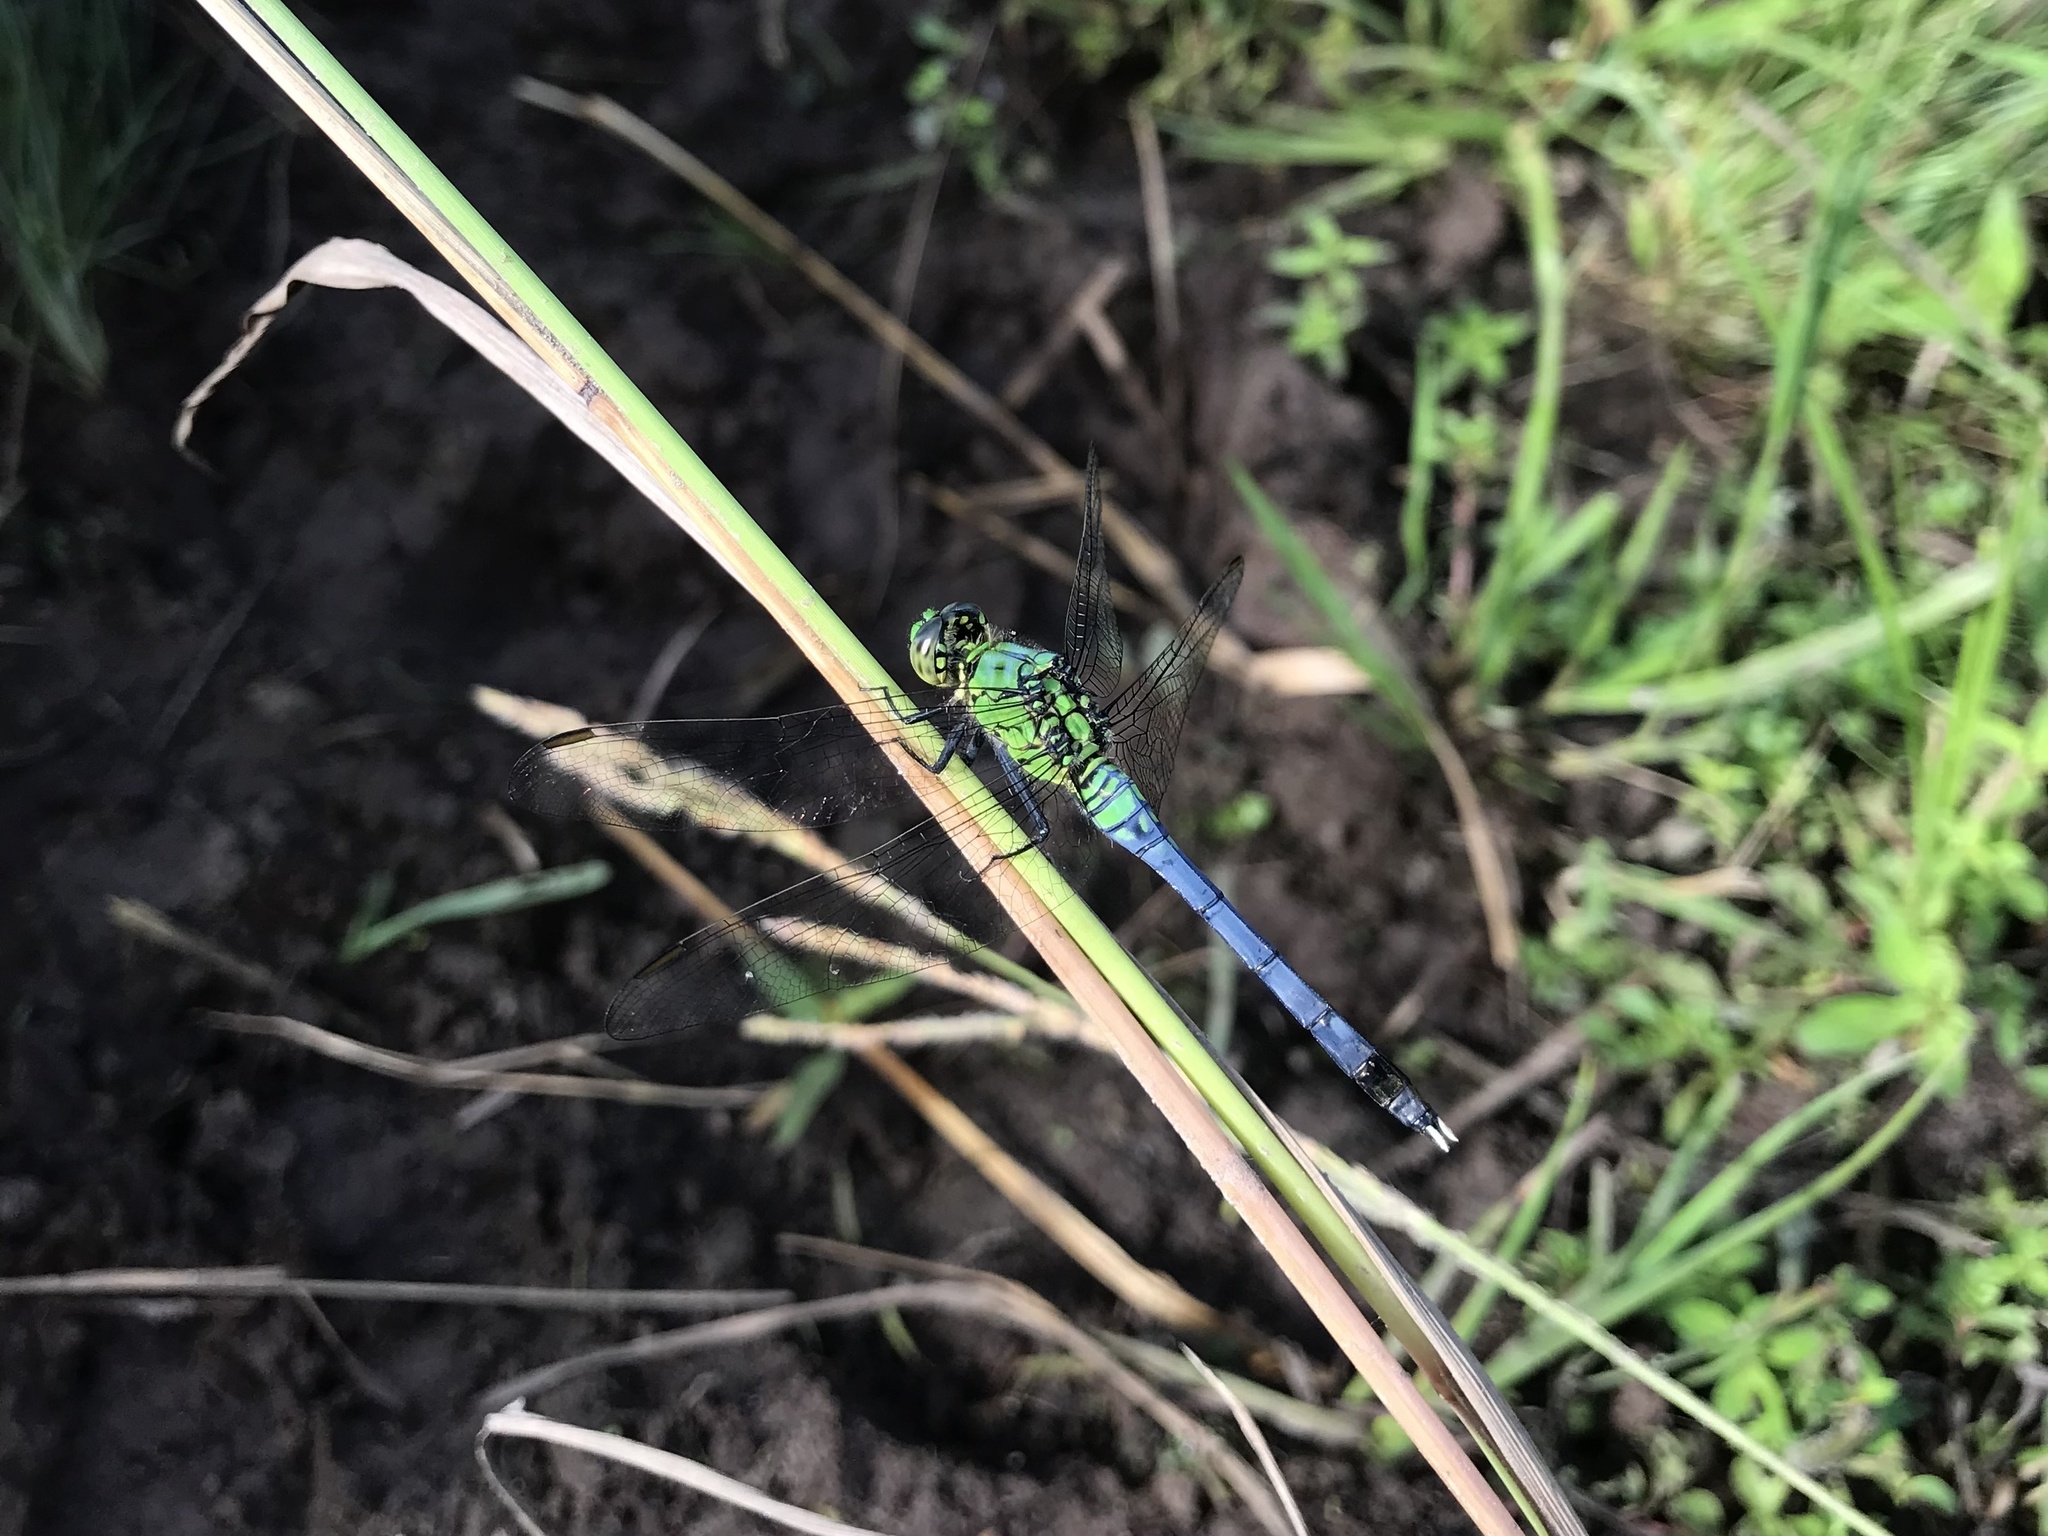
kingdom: Animalia
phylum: Arthropoda
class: Insecta
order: Odonata
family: Libellulidae
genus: Erythemis
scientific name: Erythemis simplicicollis
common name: Eastern pondhawk
